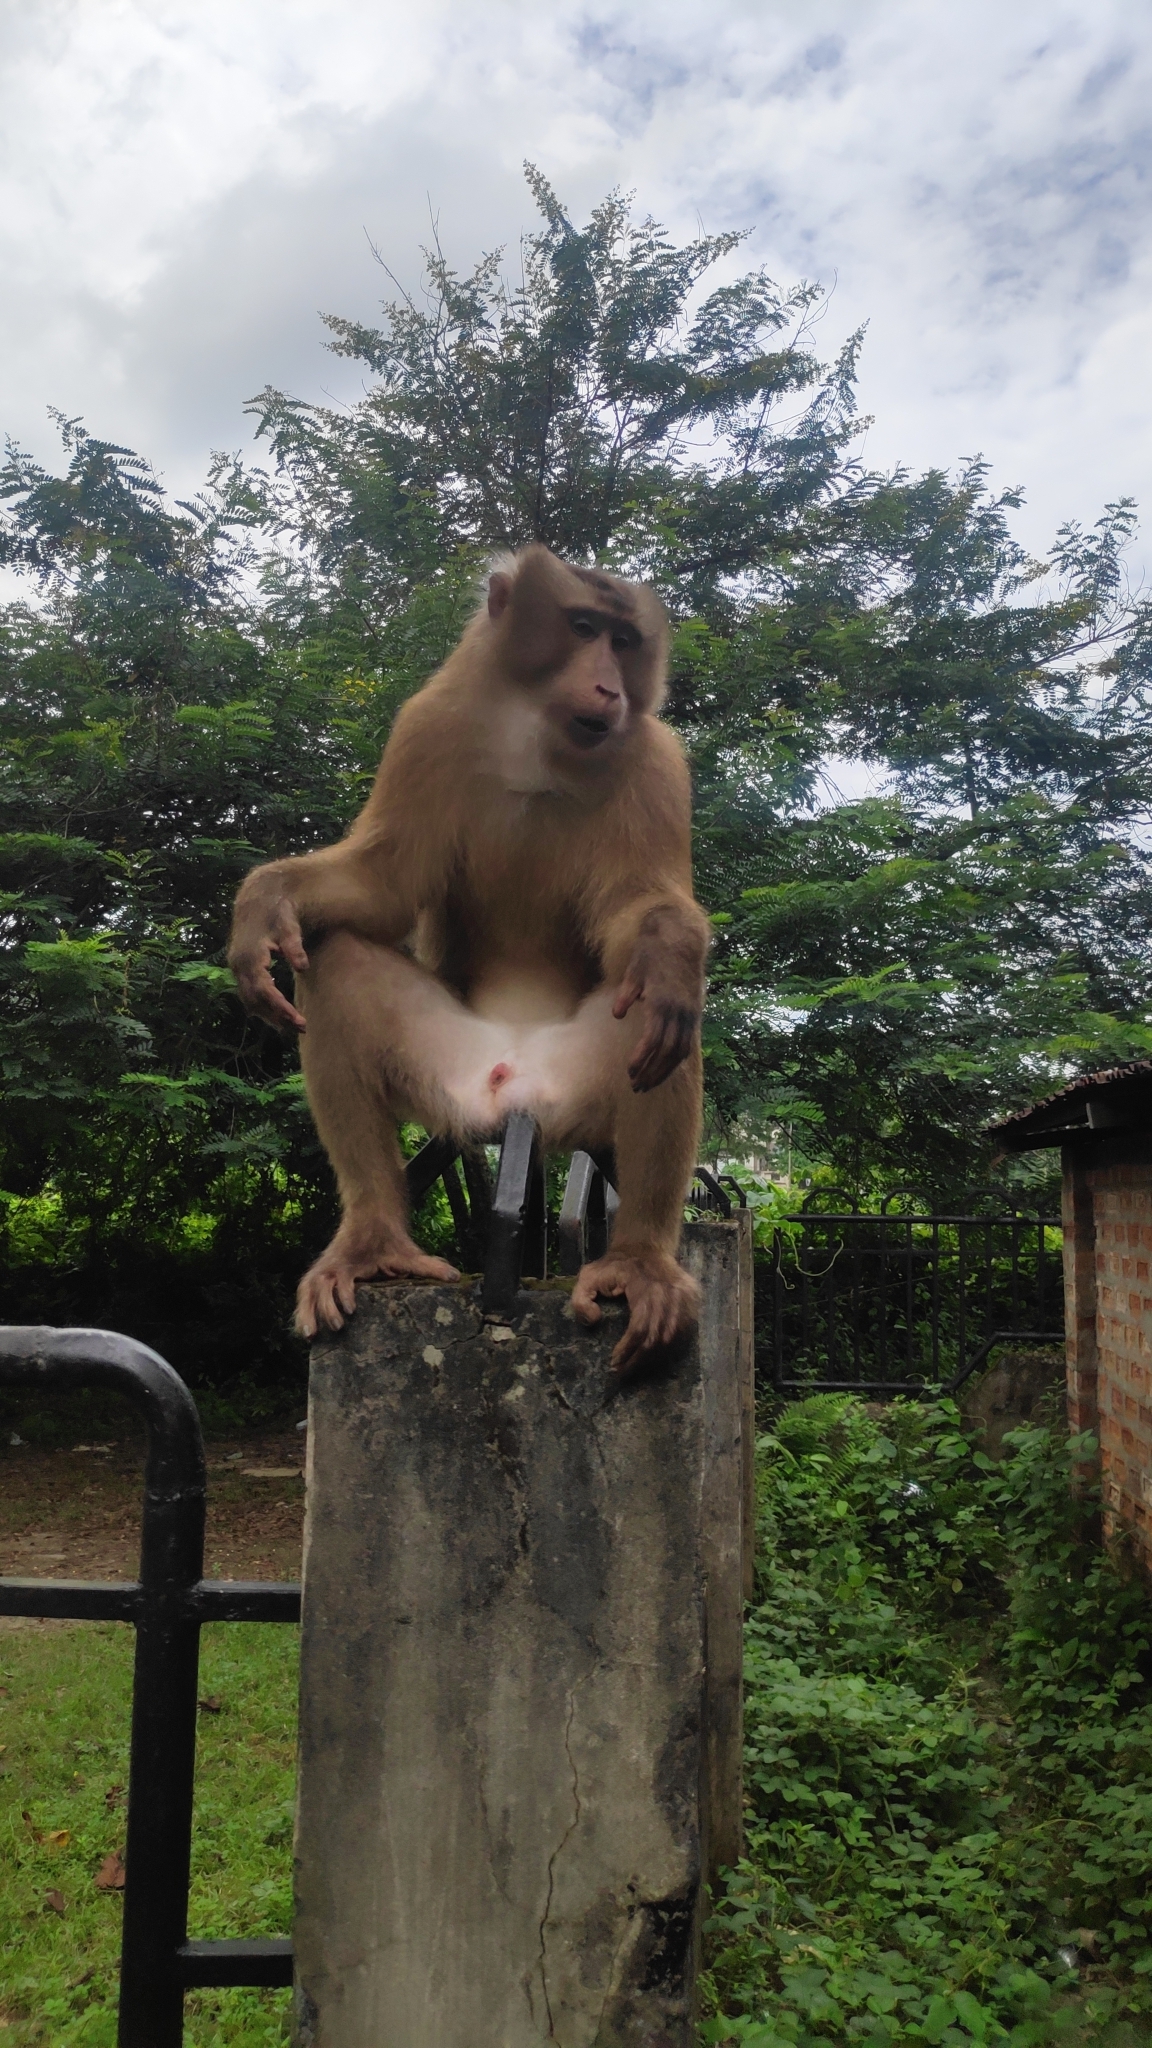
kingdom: Animalia
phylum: Chordata
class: Mammalia
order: Primates
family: Cercopithecidae
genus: Macaca
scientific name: Macaca leonina
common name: Northern pig-tailed macaque
